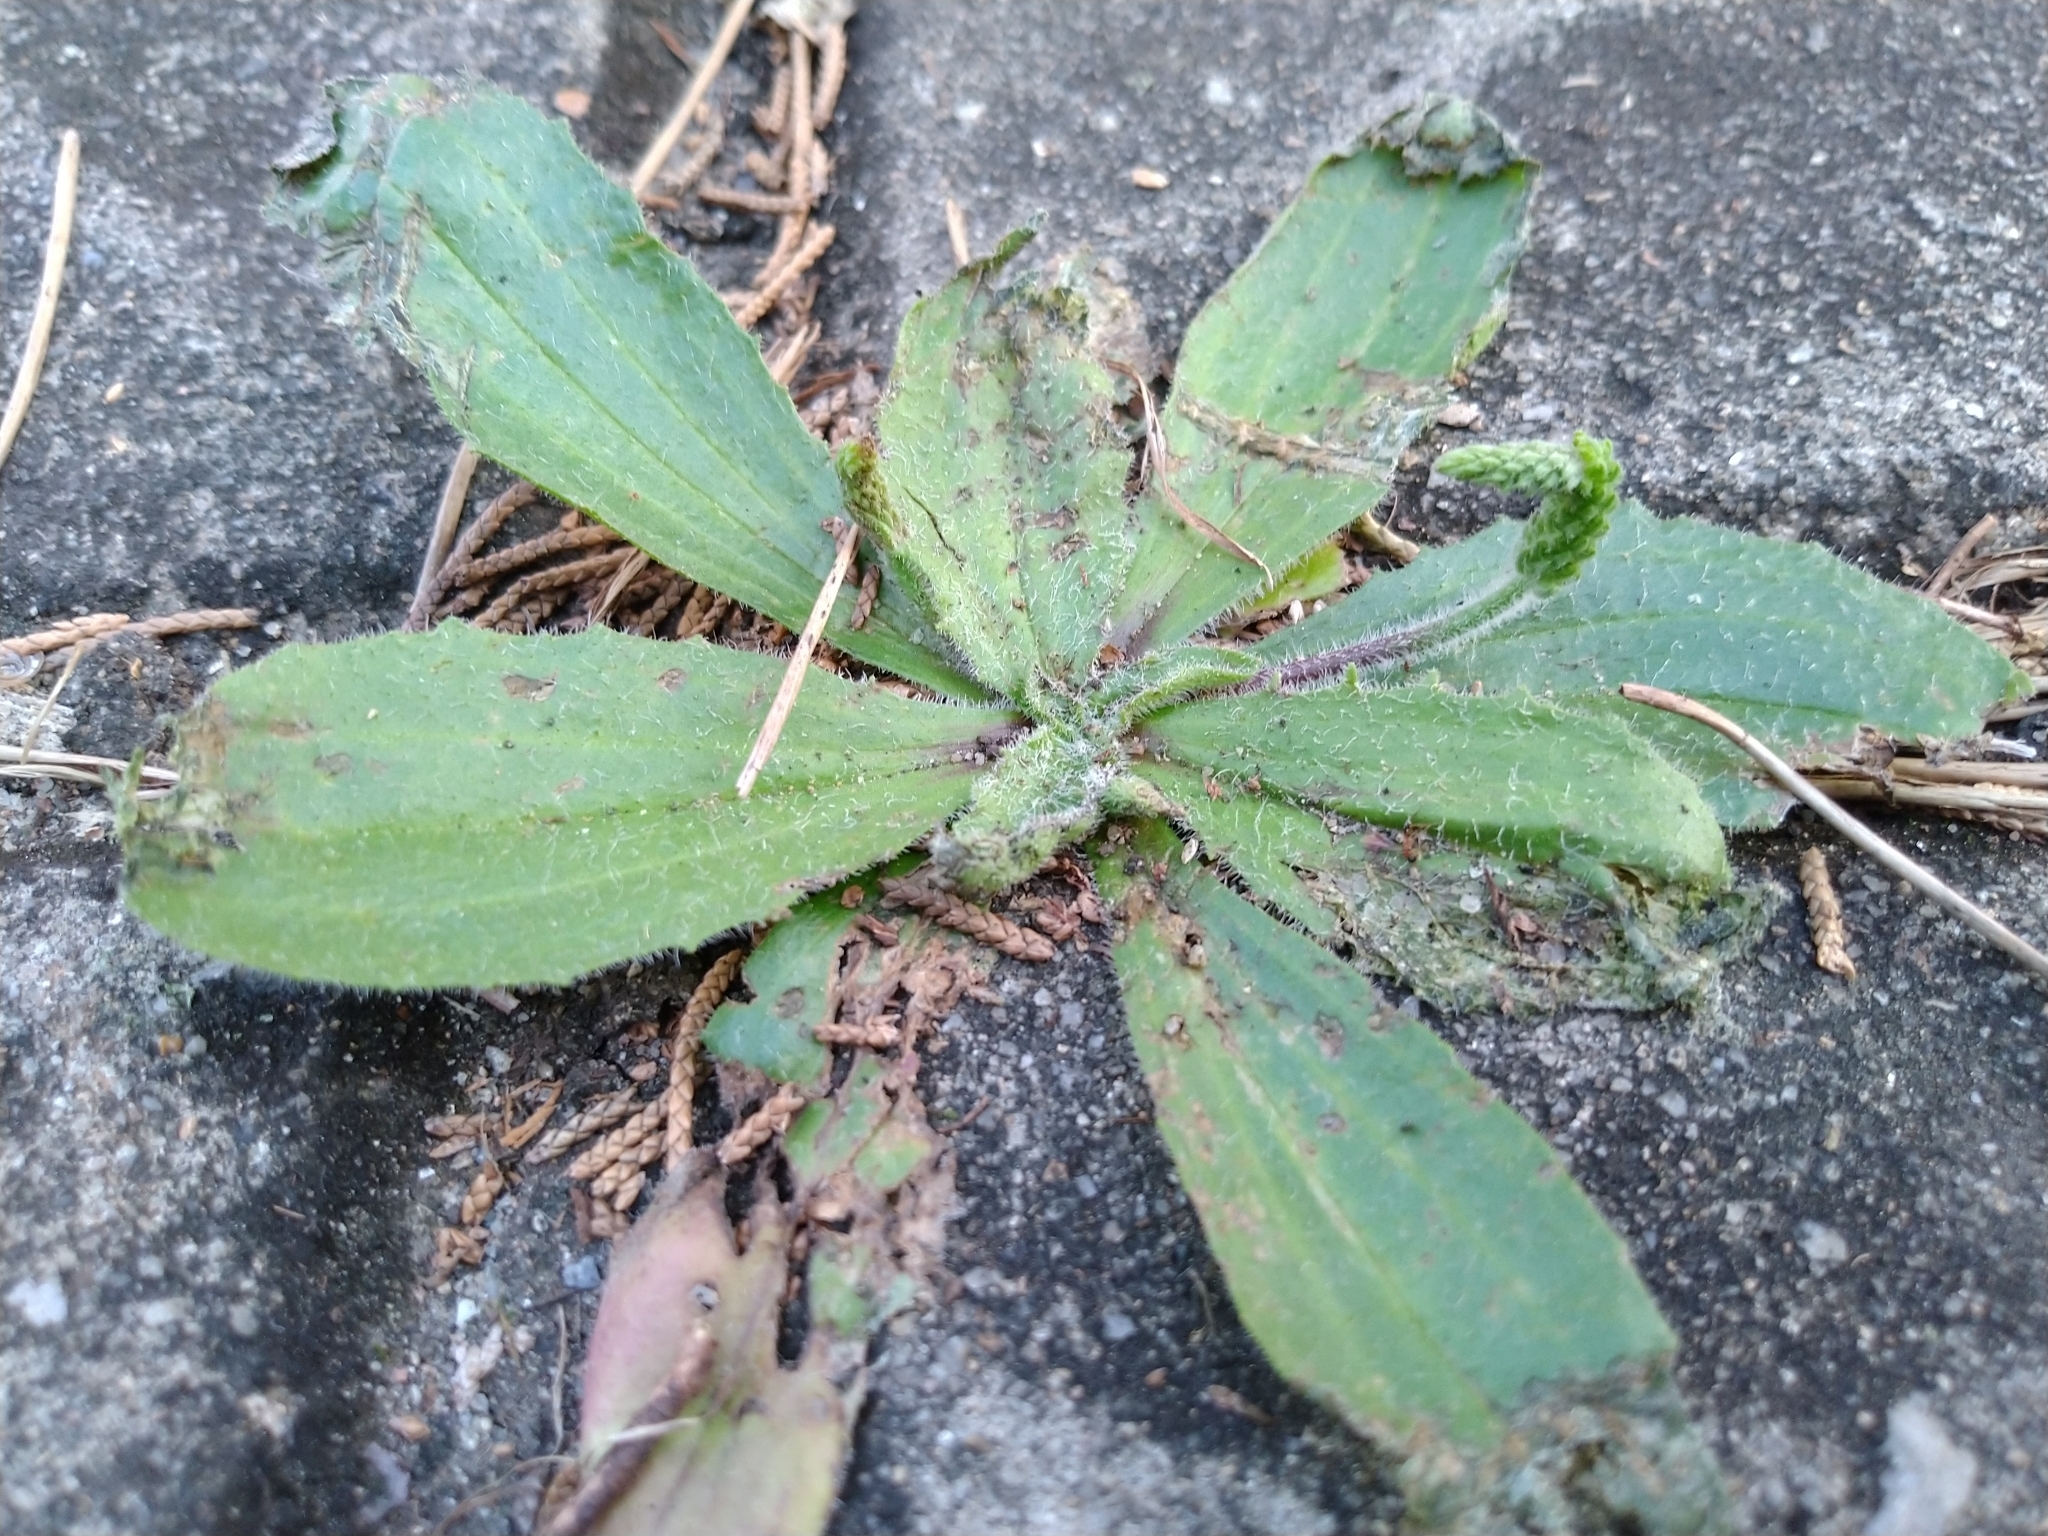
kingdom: Plantae
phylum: Tracheophyta
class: Magnoliopsida
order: Lamiales
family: Plantaginaceae
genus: Plantago
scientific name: Plantago virginica
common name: Hoary plantain
